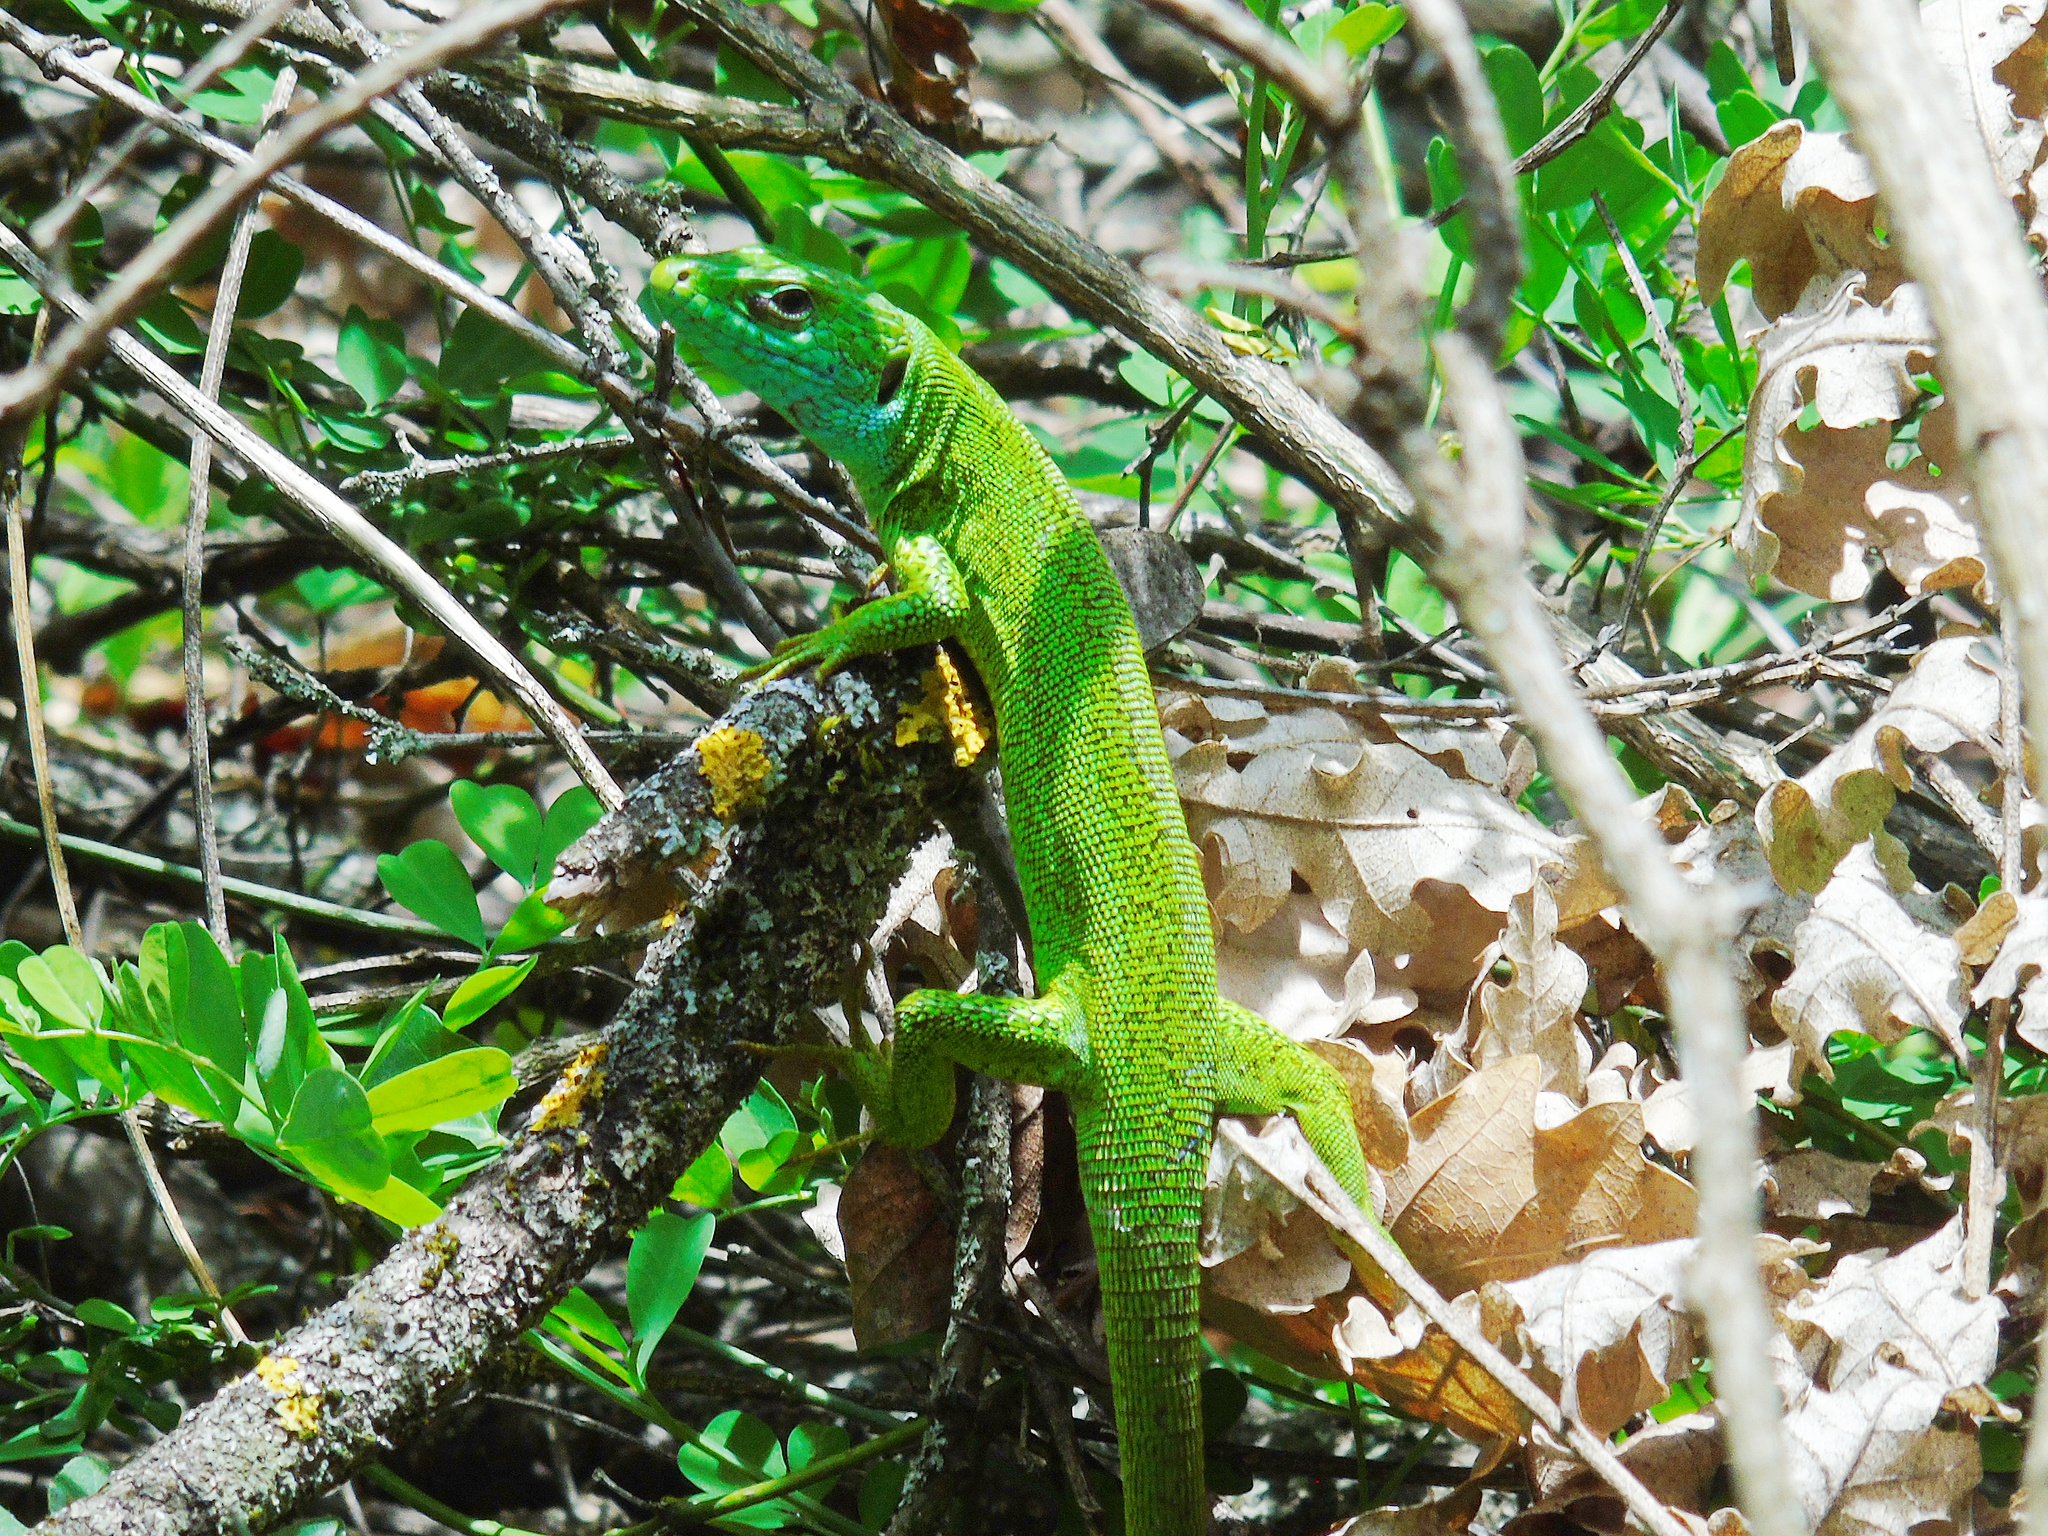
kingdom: Animalia
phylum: Chordata
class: Squamata
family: Lacertidae
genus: Lacerta
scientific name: Lacerta viridis
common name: European green lizard
